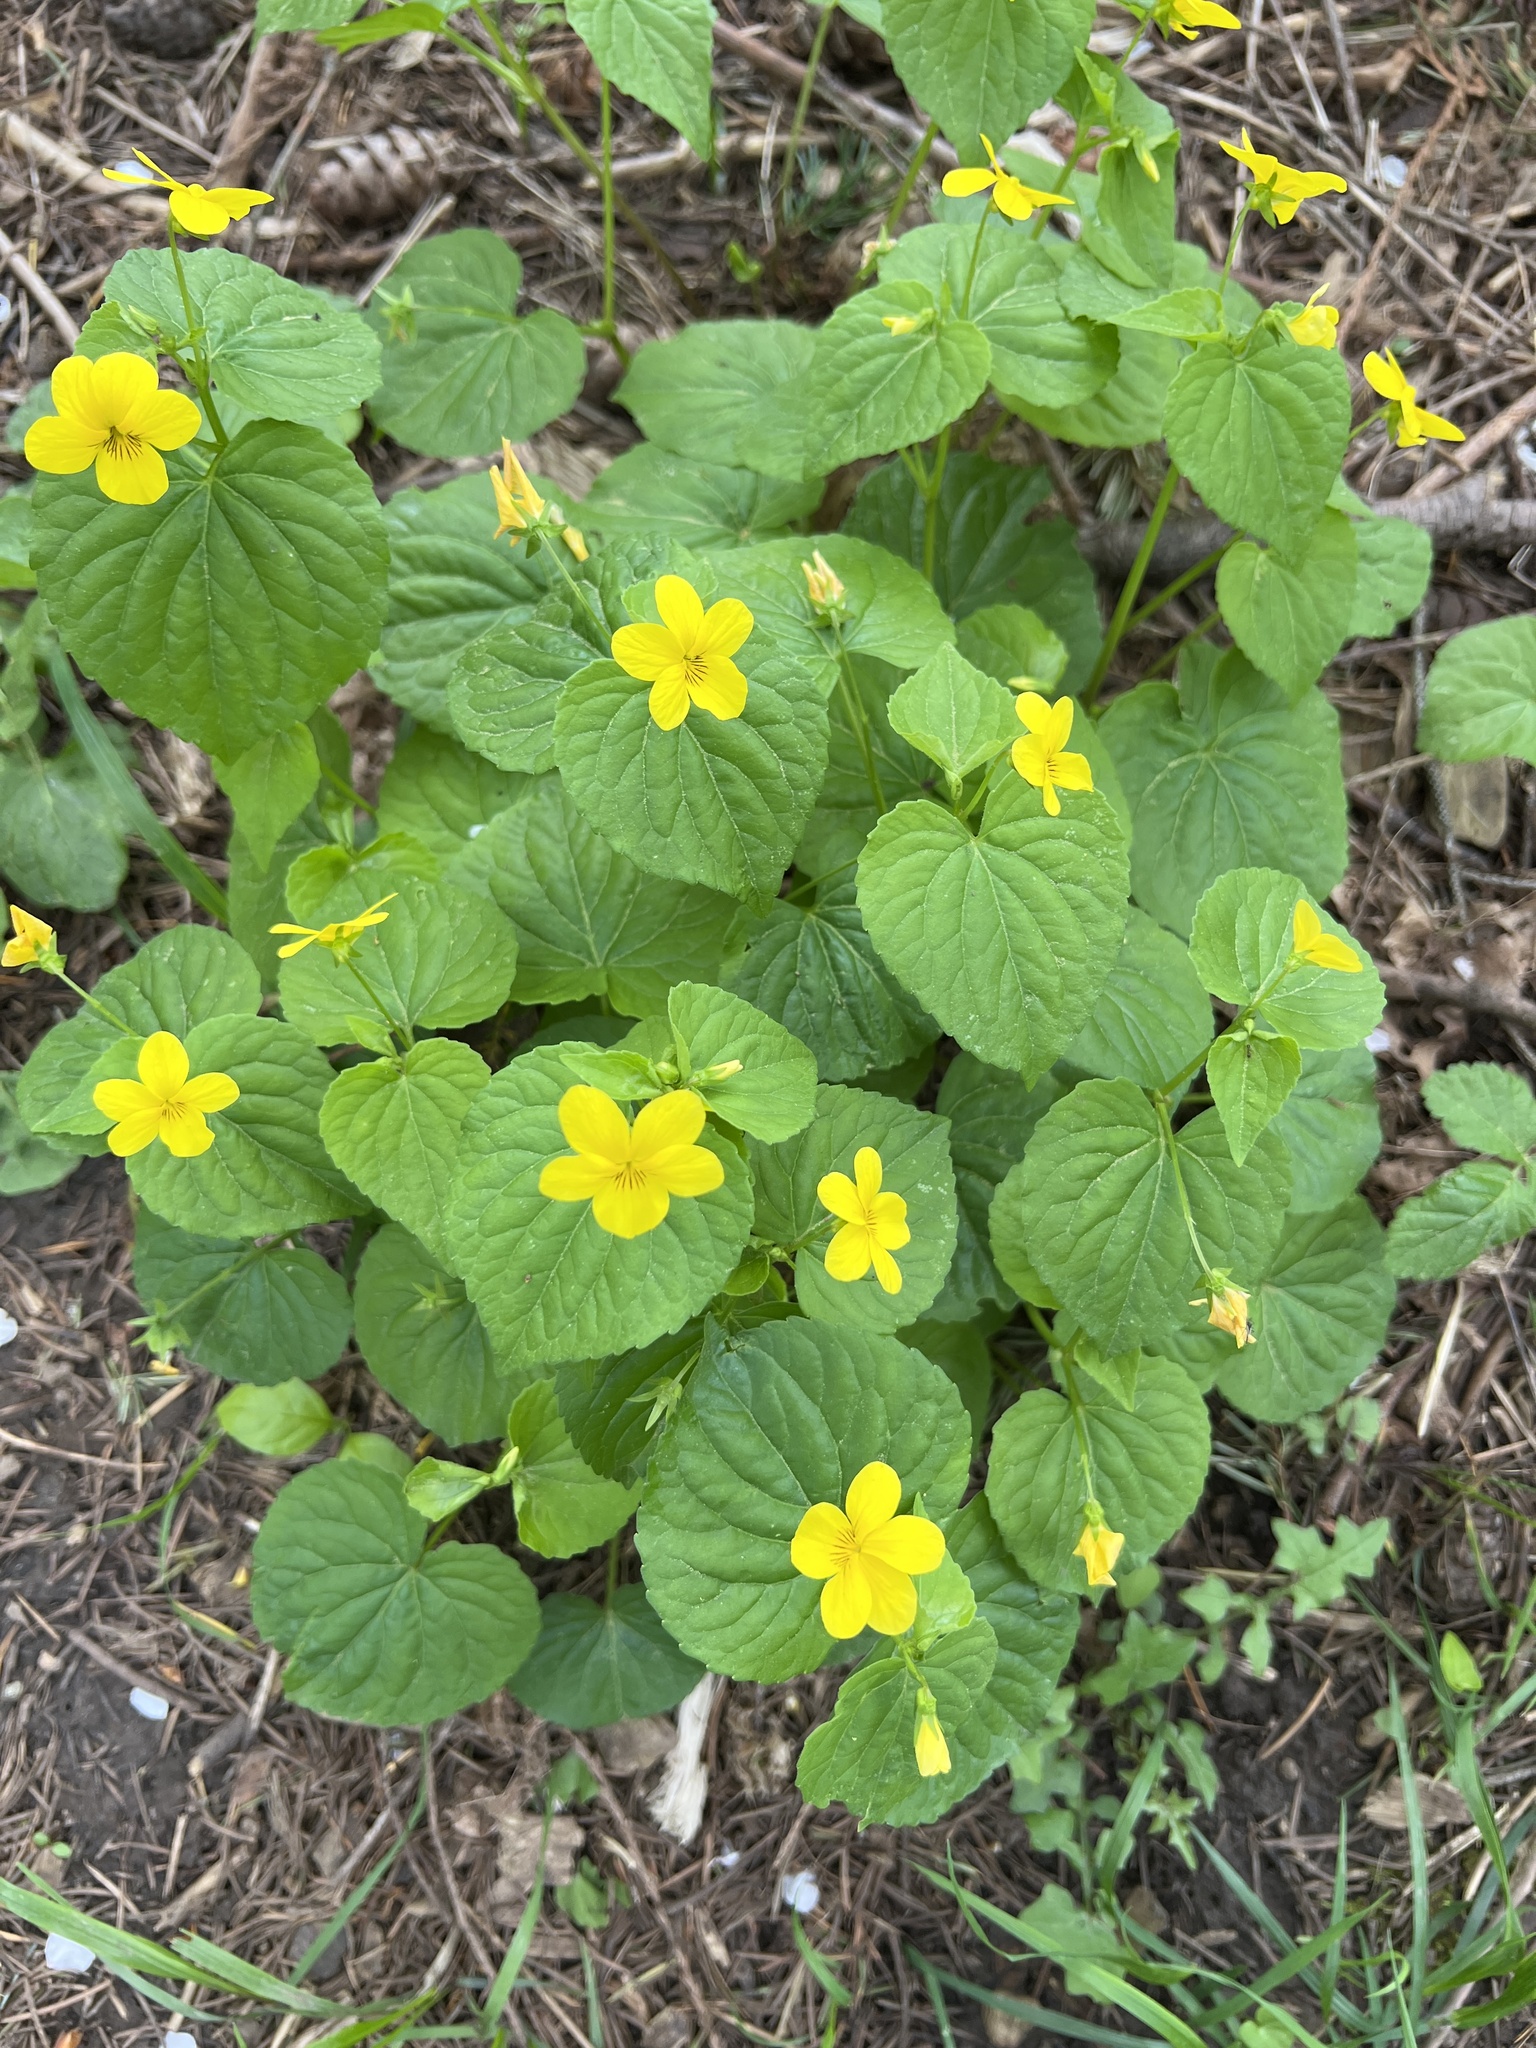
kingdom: Plantae
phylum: Tracheophyta
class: Magnoliopsida
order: Malpighiales
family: Violaceae
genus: Viola
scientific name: Viola glabella
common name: Stream violet
